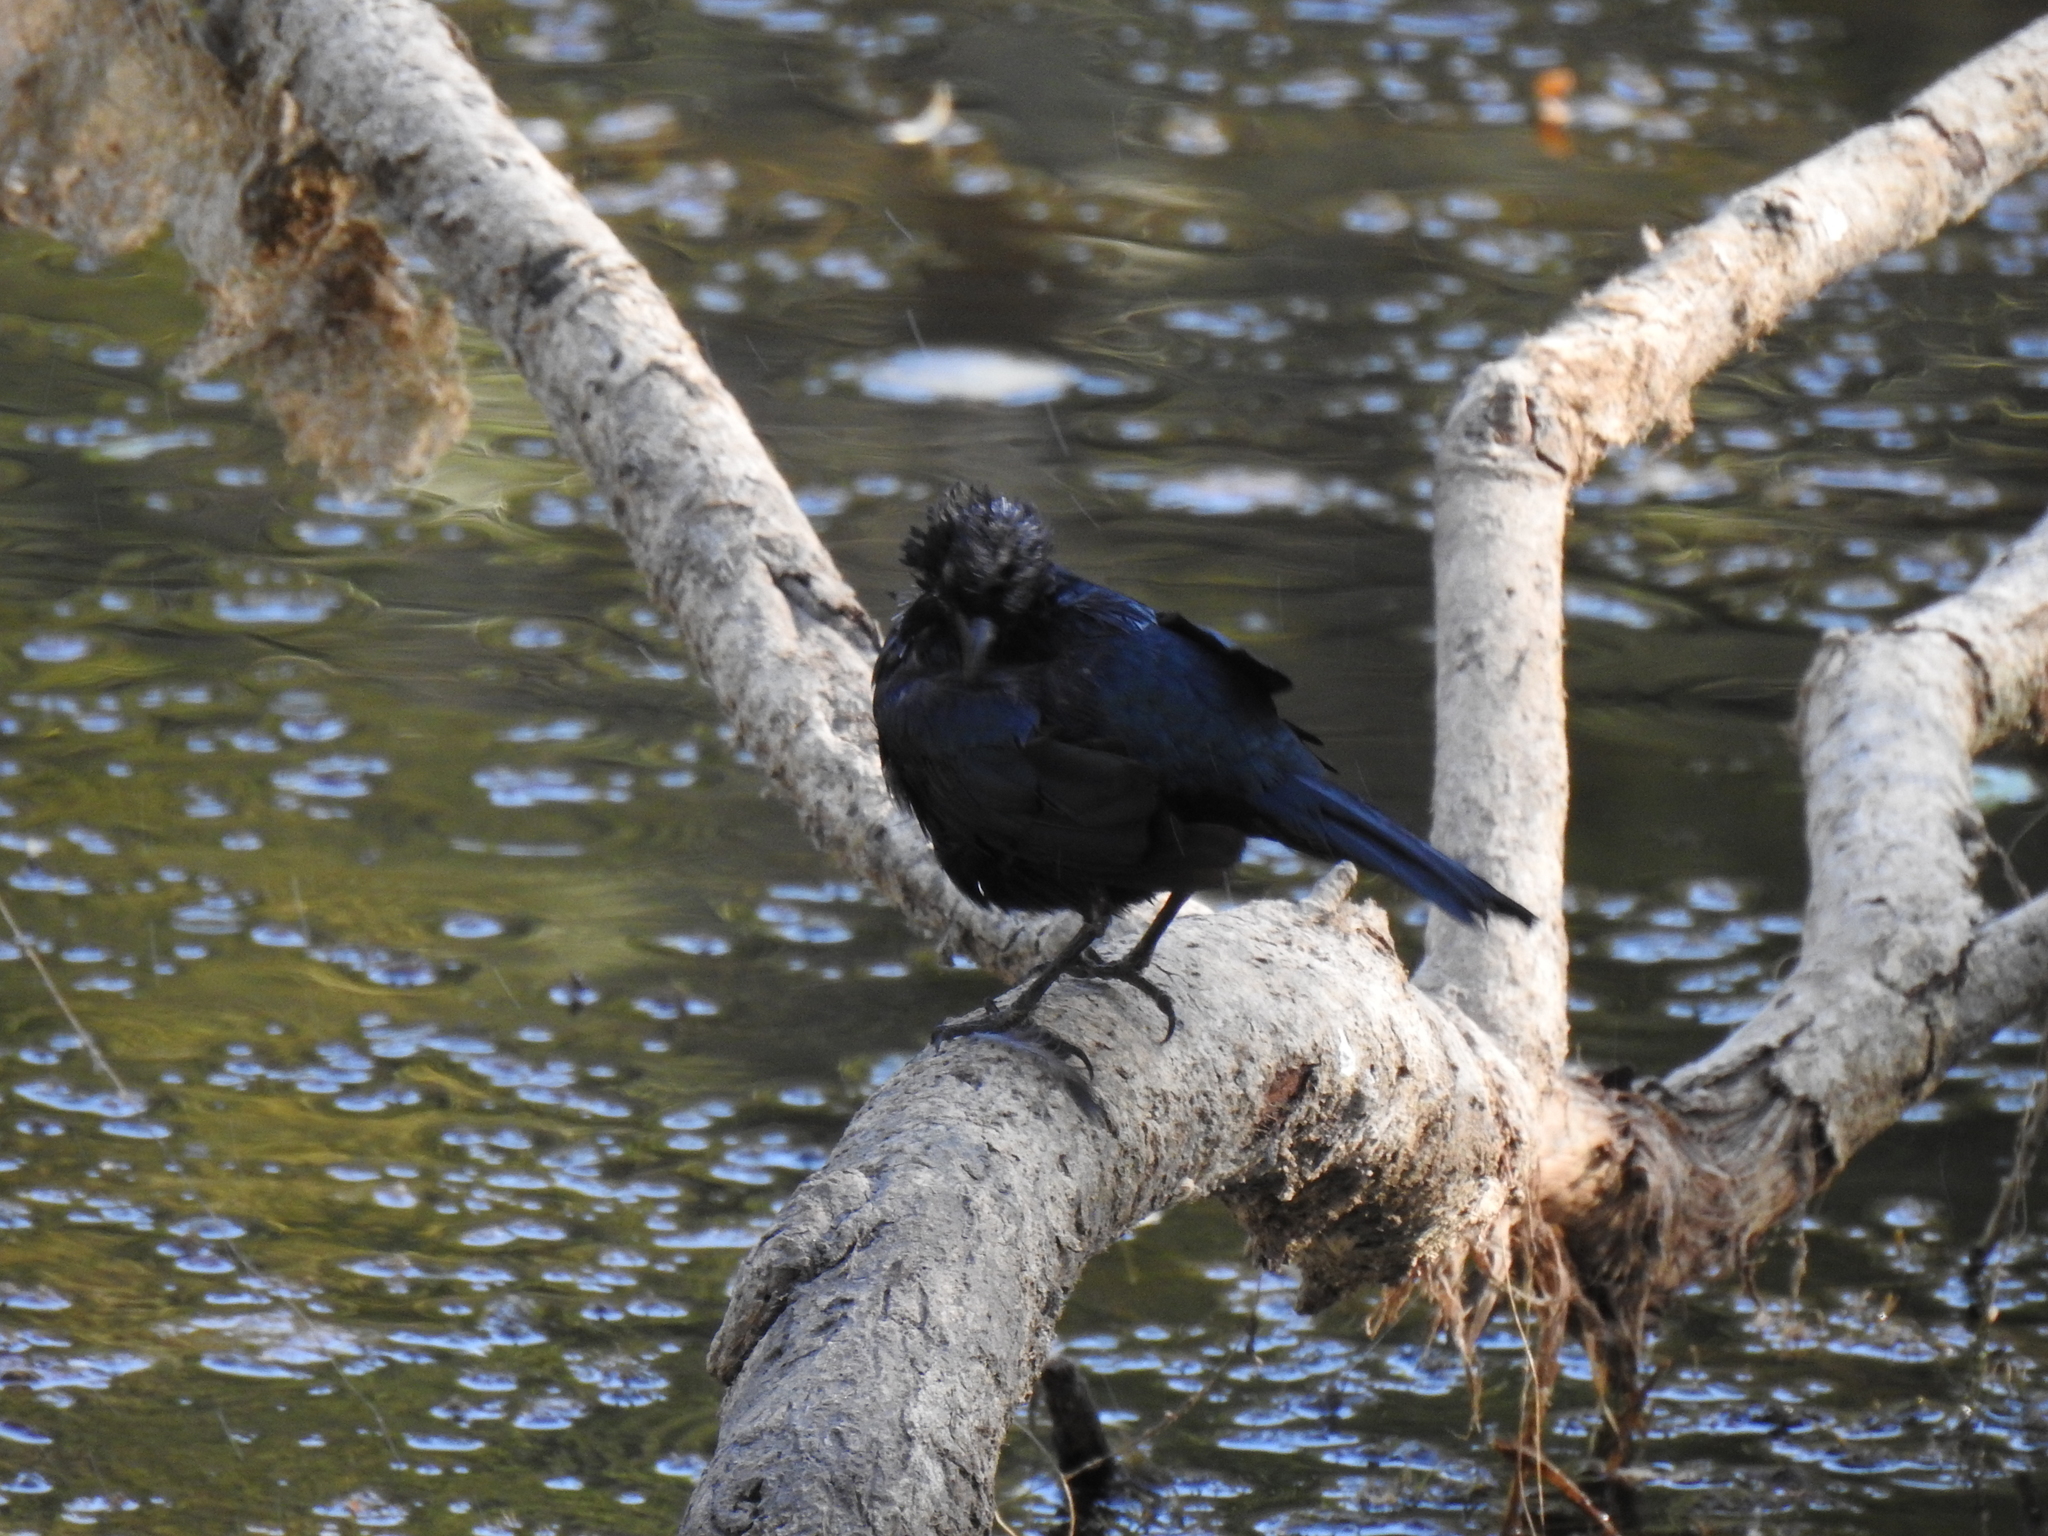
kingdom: Animalia
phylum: Chordata
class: Aves
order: Passeriformes
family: Icteridae
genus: Euphagus
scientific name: Euphagus cyanocephalus
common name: Brewer's blackbird
